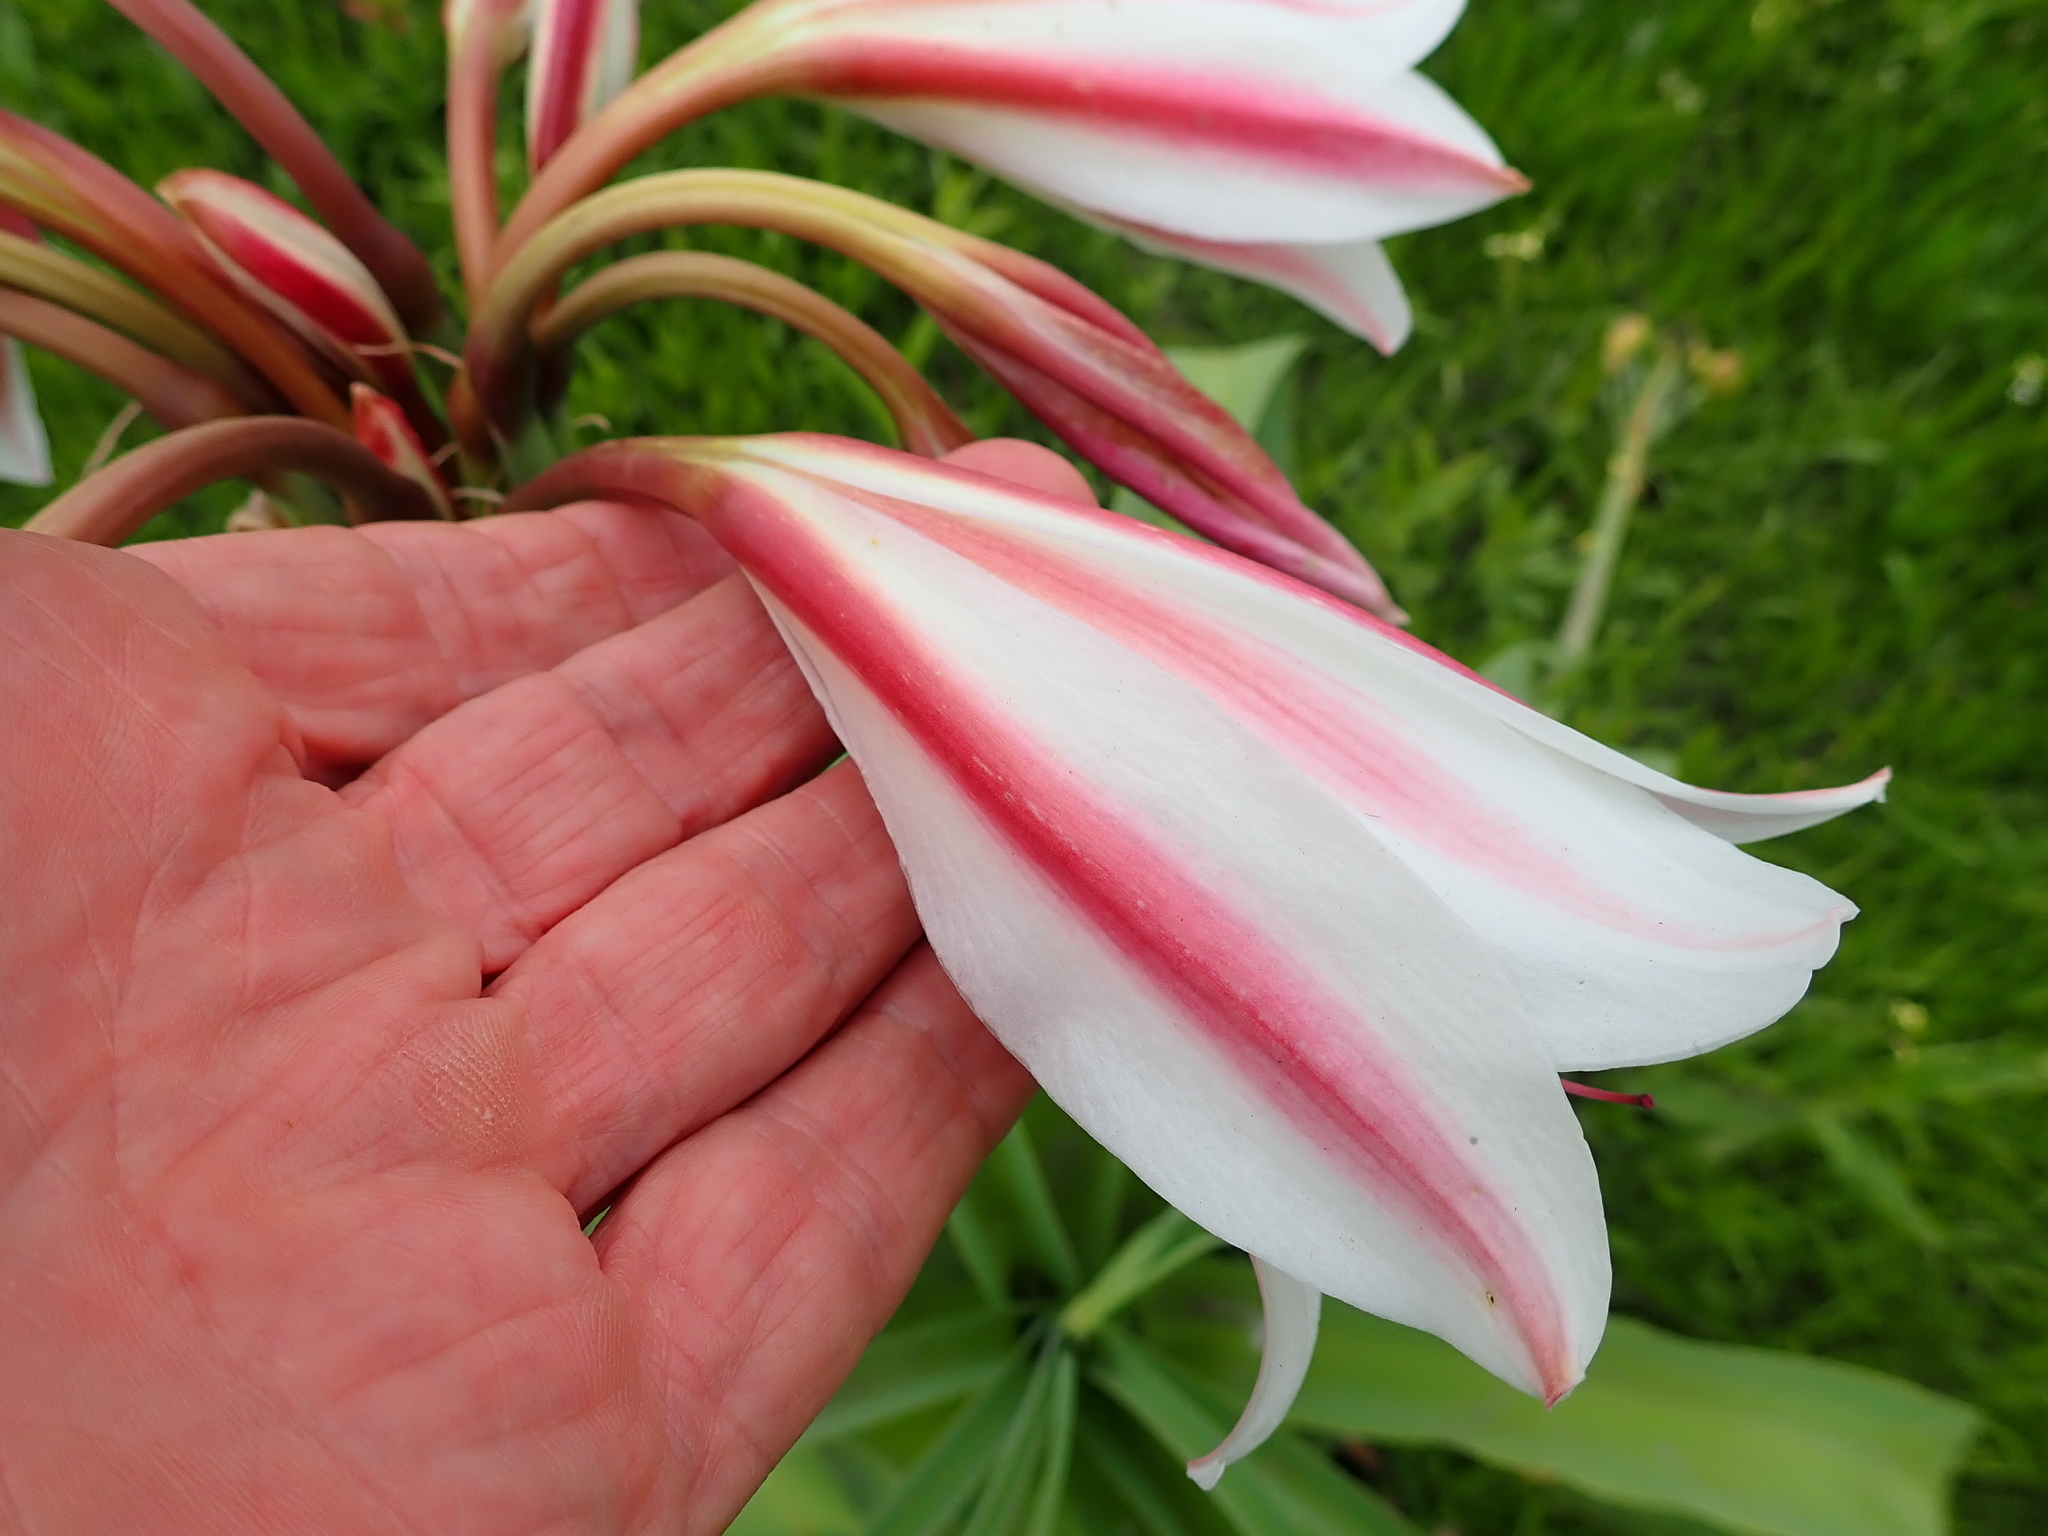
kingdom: Plantae
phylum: Tracheophyta
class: Liliopsida
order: Asparagales
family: Amaryllidaceae
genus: Crinum
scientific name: Crinum bulbispermum
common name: Hardy swamplily
